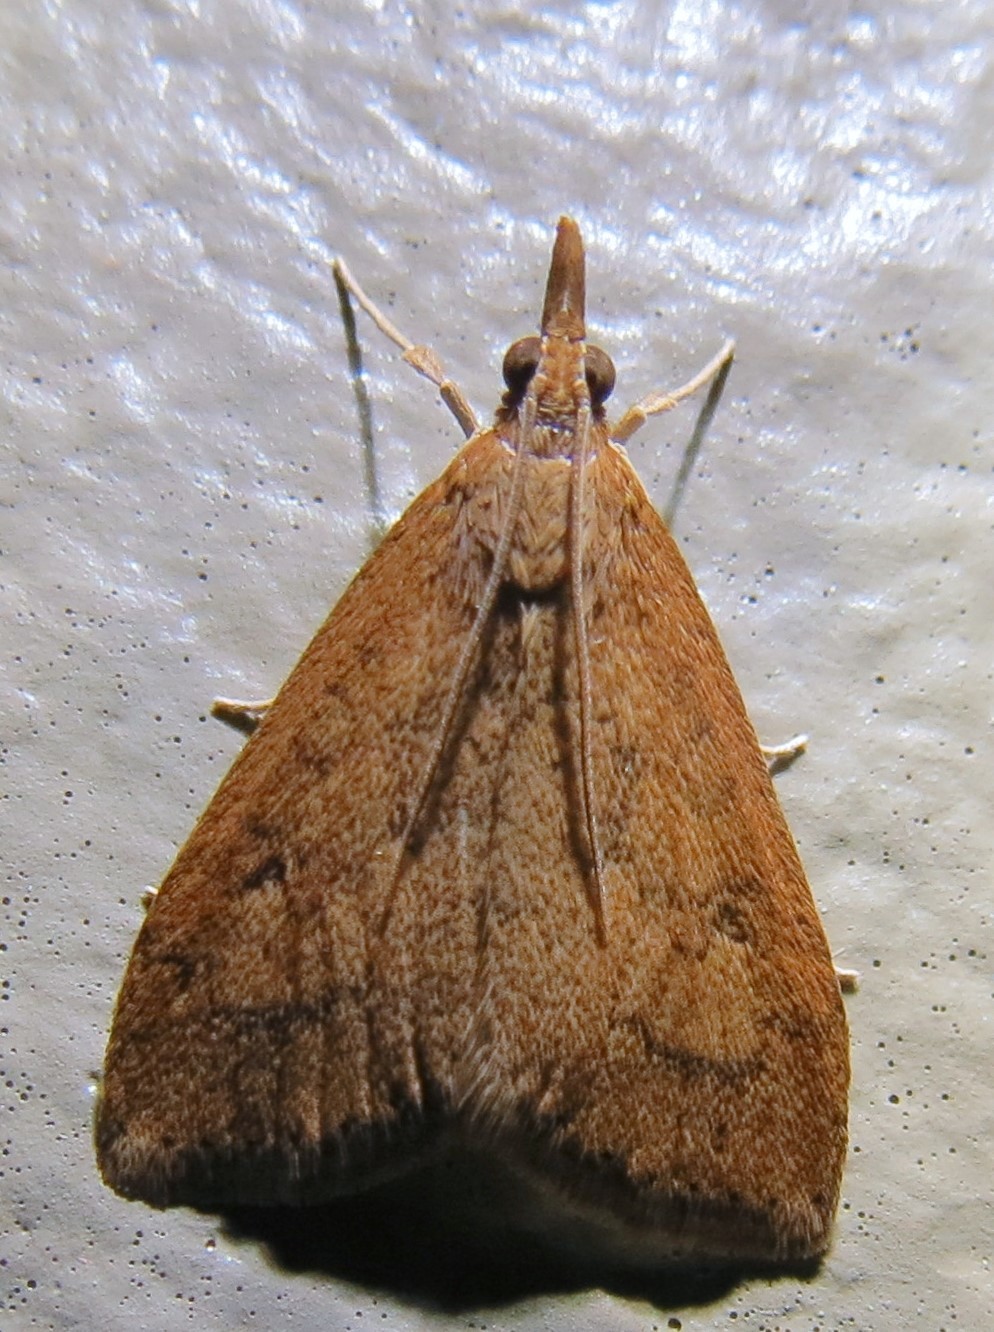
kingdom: Animalia
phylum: Arthropoda
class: Insecta
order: Lepidoptera
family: Crambidae
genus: Udea
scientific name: Udea rubigalis
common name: Celery leaftier moth
